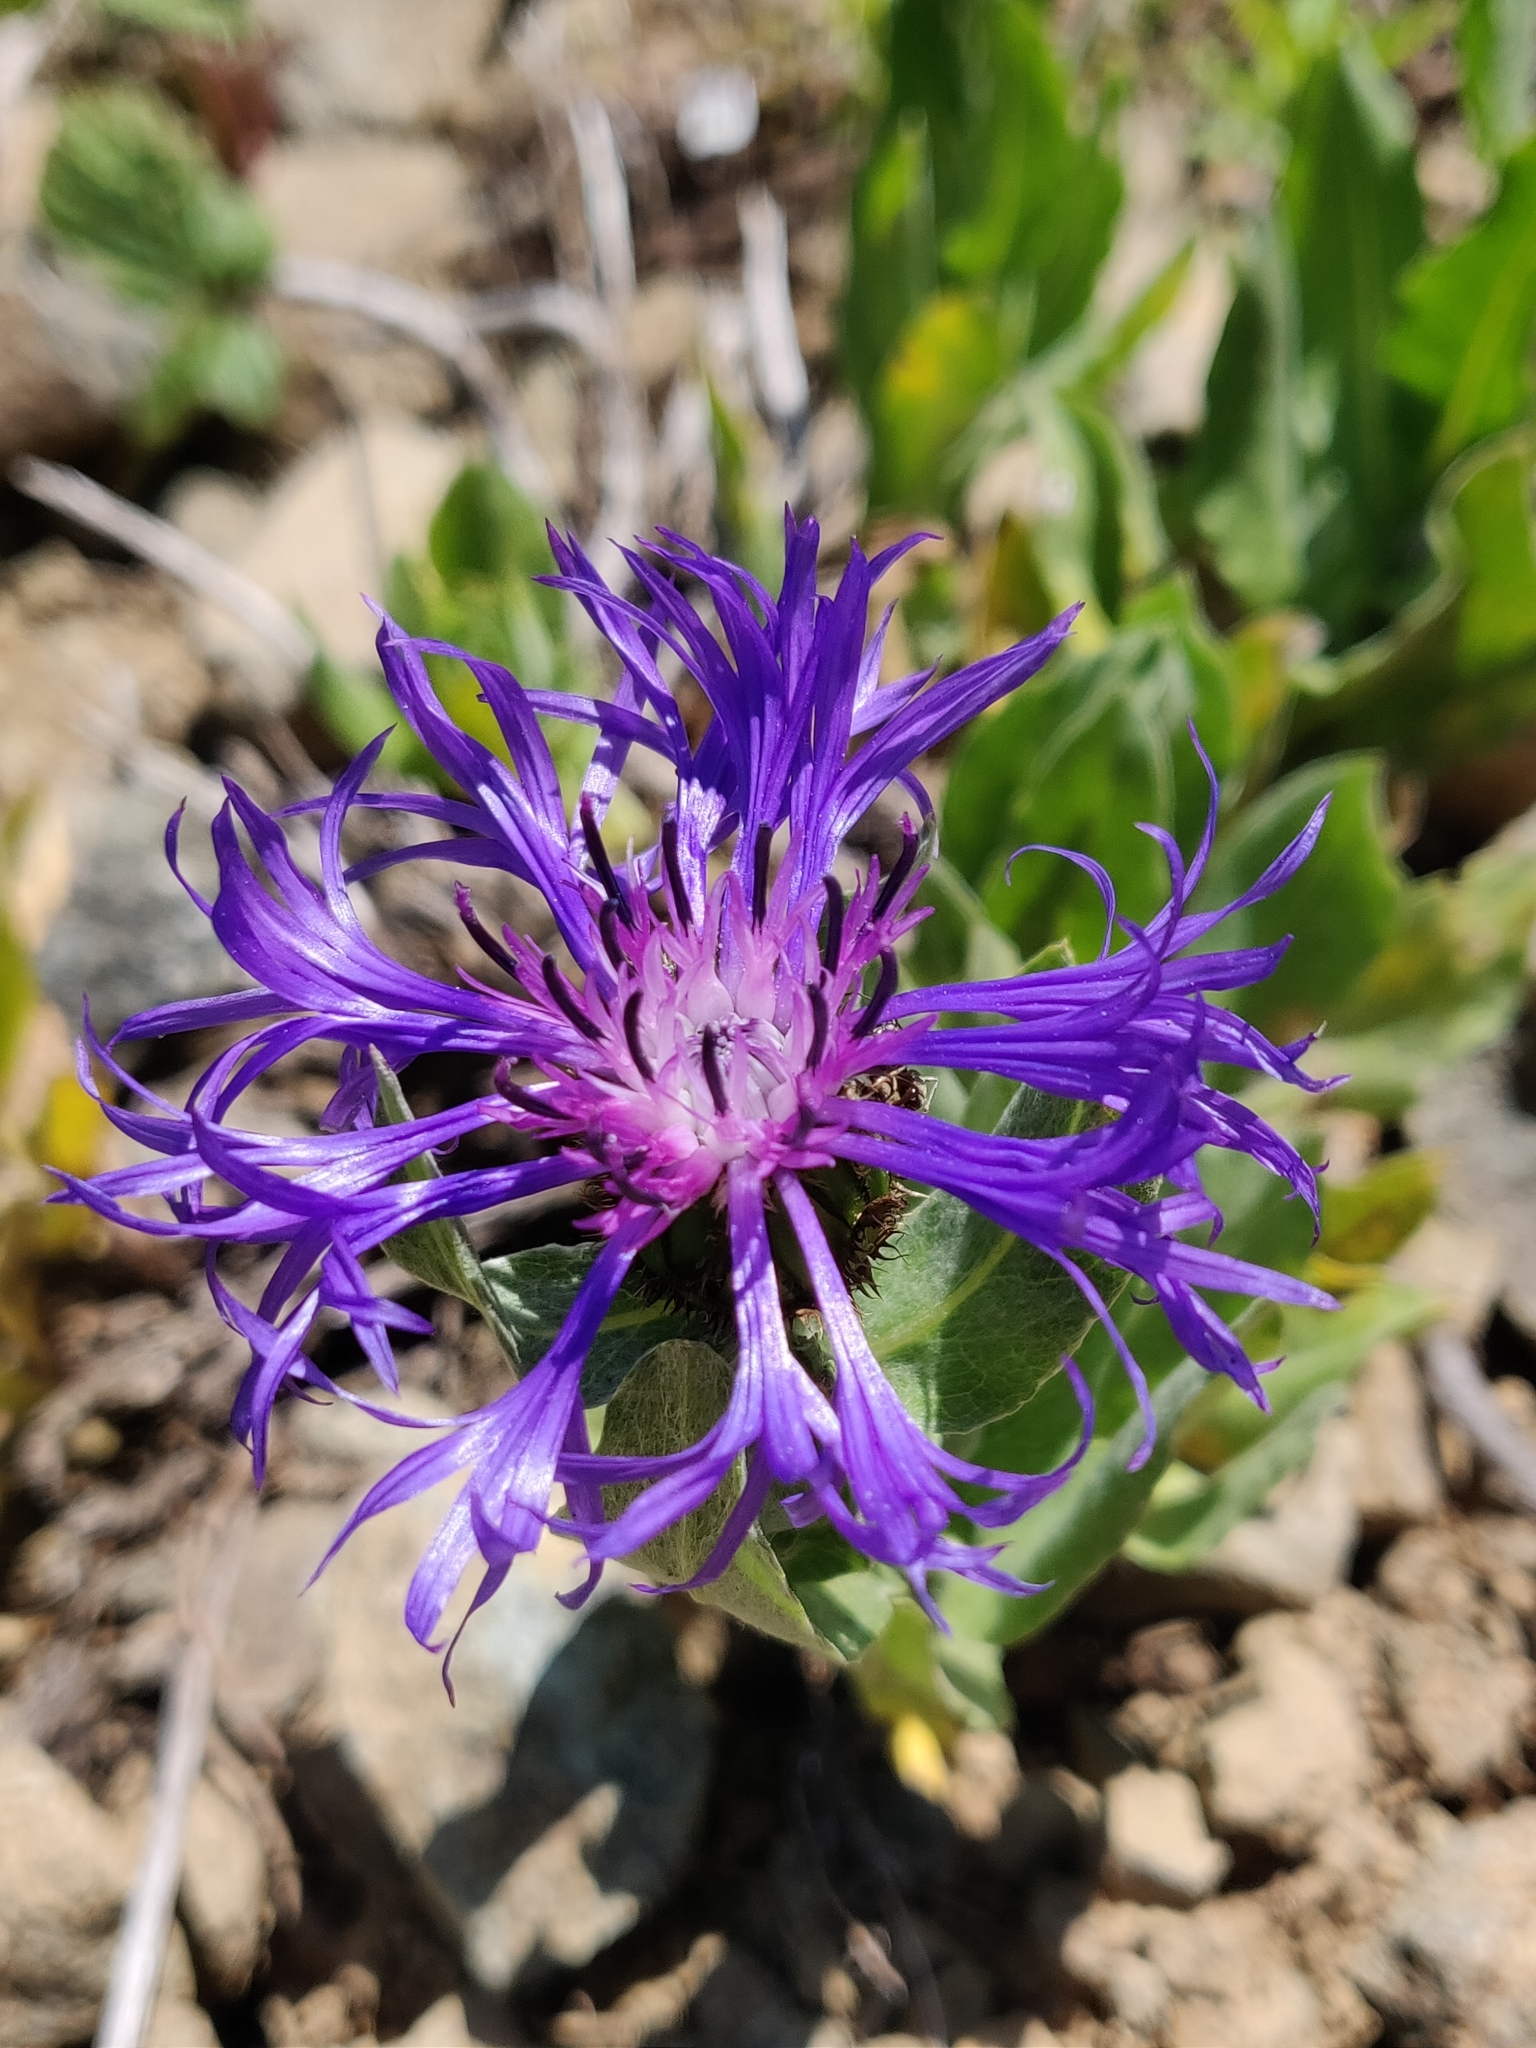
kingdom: Plantae
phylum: Tracheophyta
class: Magnoliopsida
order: Asterales
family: Asteraceae
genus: Centaurea
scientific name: Centaurea montana
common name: Perennial cornflower
